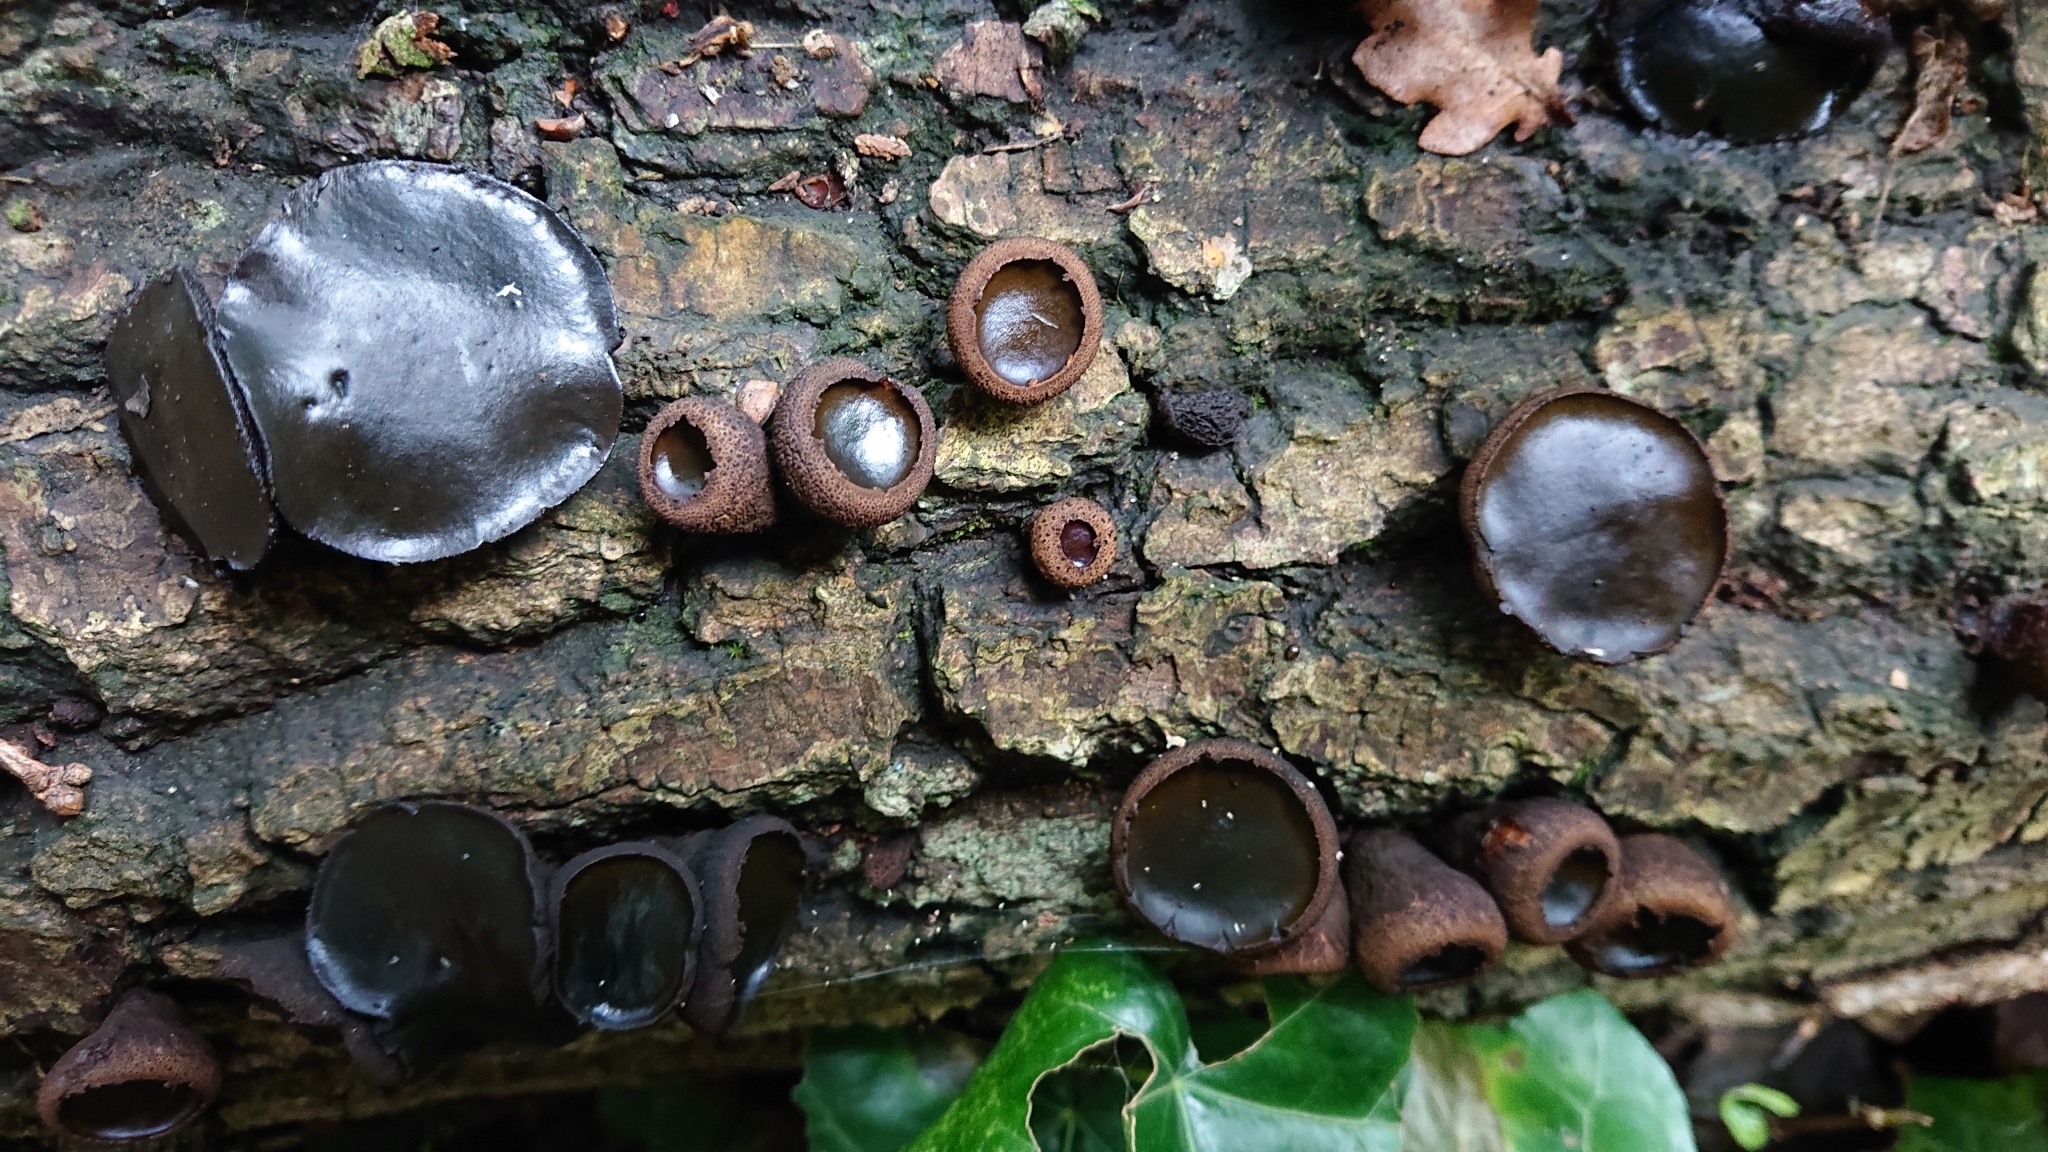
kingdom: Fungi
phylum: Ascomycota
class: Leotiomycetes
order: Phacidiales
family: Phacidiaceae
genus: Bulgaria
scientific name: Bulgaria inquinans
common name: Black bulgar
